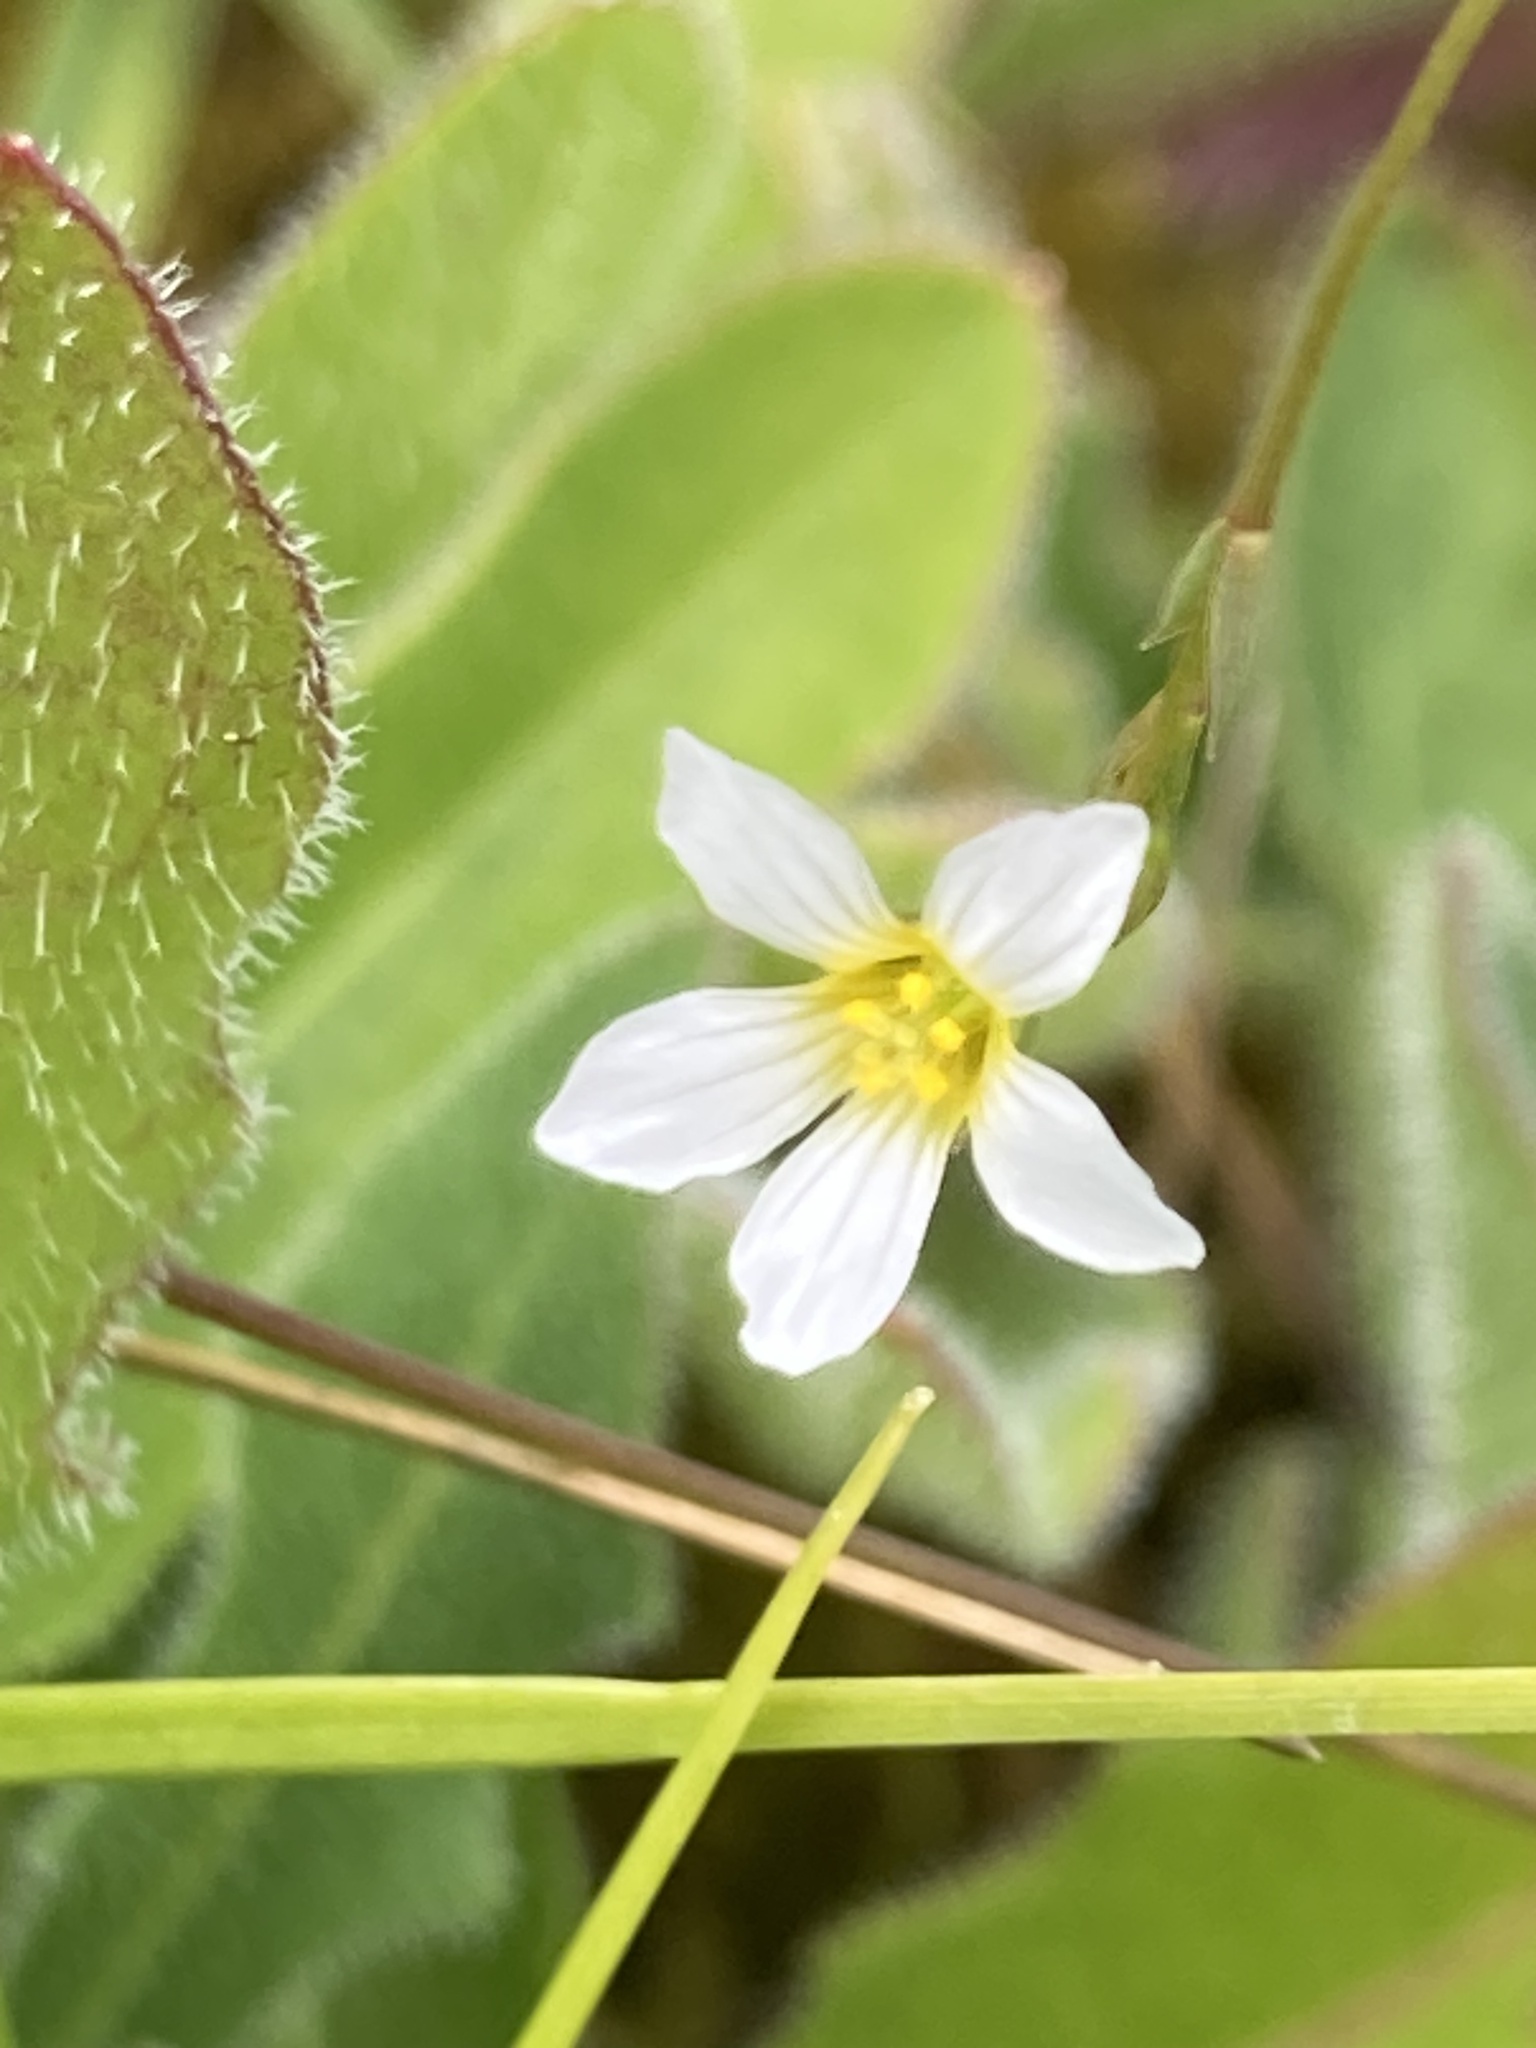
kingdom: Plantae
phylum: Tracheophyta
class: Magnoliopsida
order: Malpighiales
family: Linaceae
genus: Linum
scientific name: Linum catharticum
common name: Fairy flax
